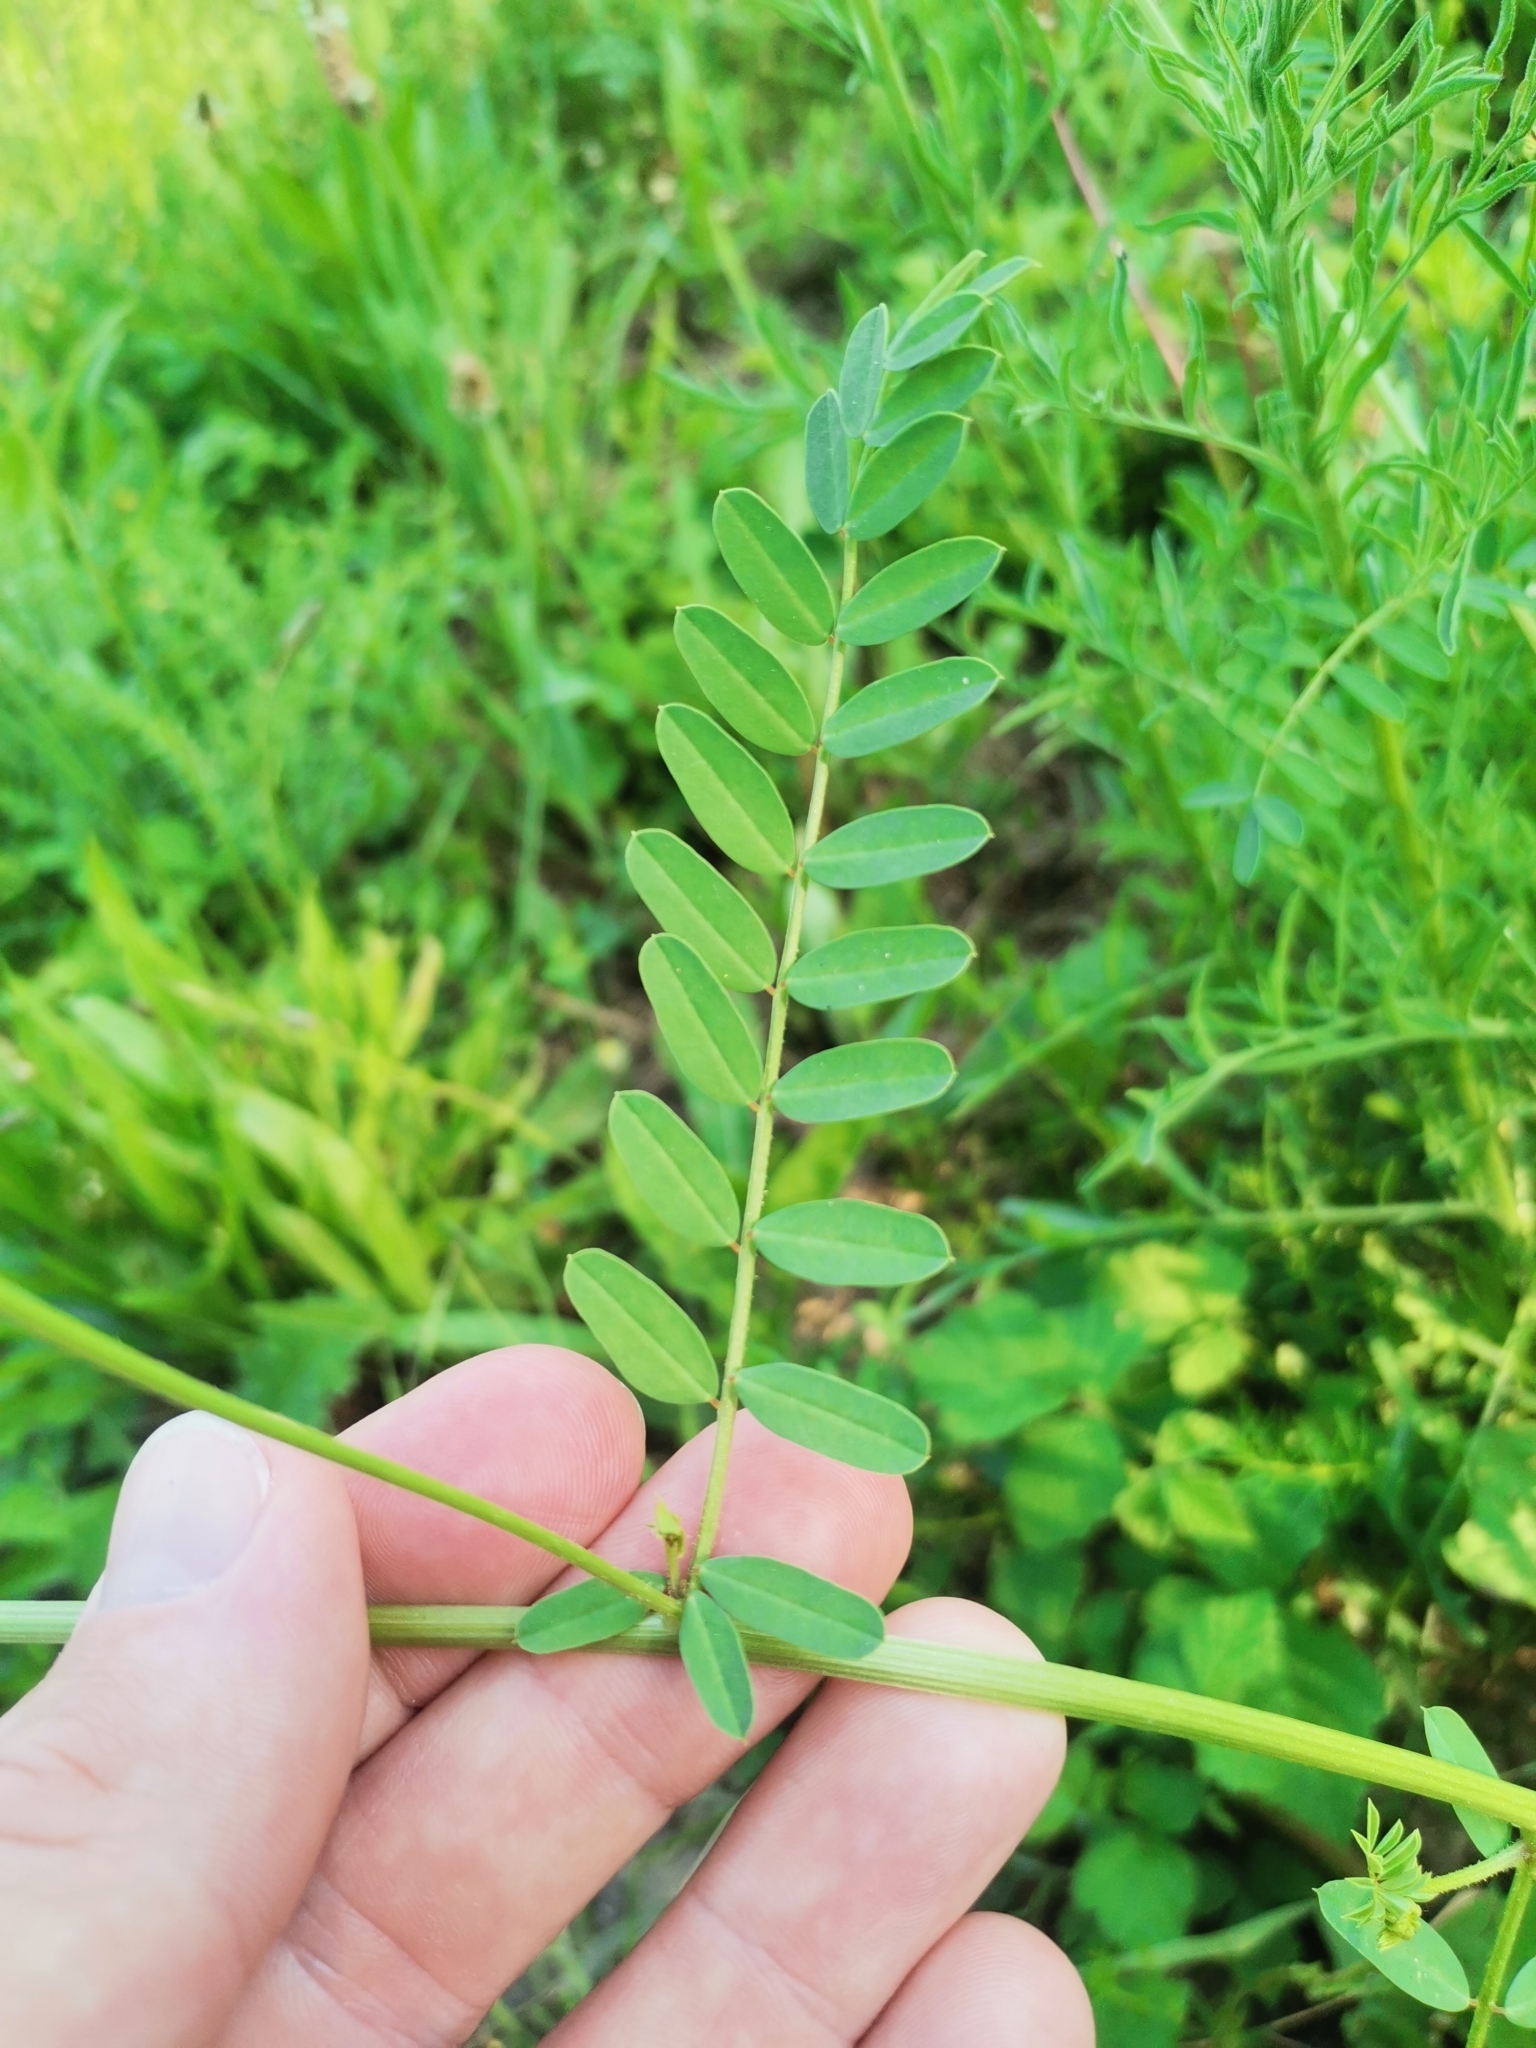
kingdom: Plantae
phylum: Tracheophyta
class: Magnoliopsida
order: Fabales
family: Fabaceae
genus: Coronilla
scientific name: Coronilla varia
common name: Crownvetch
